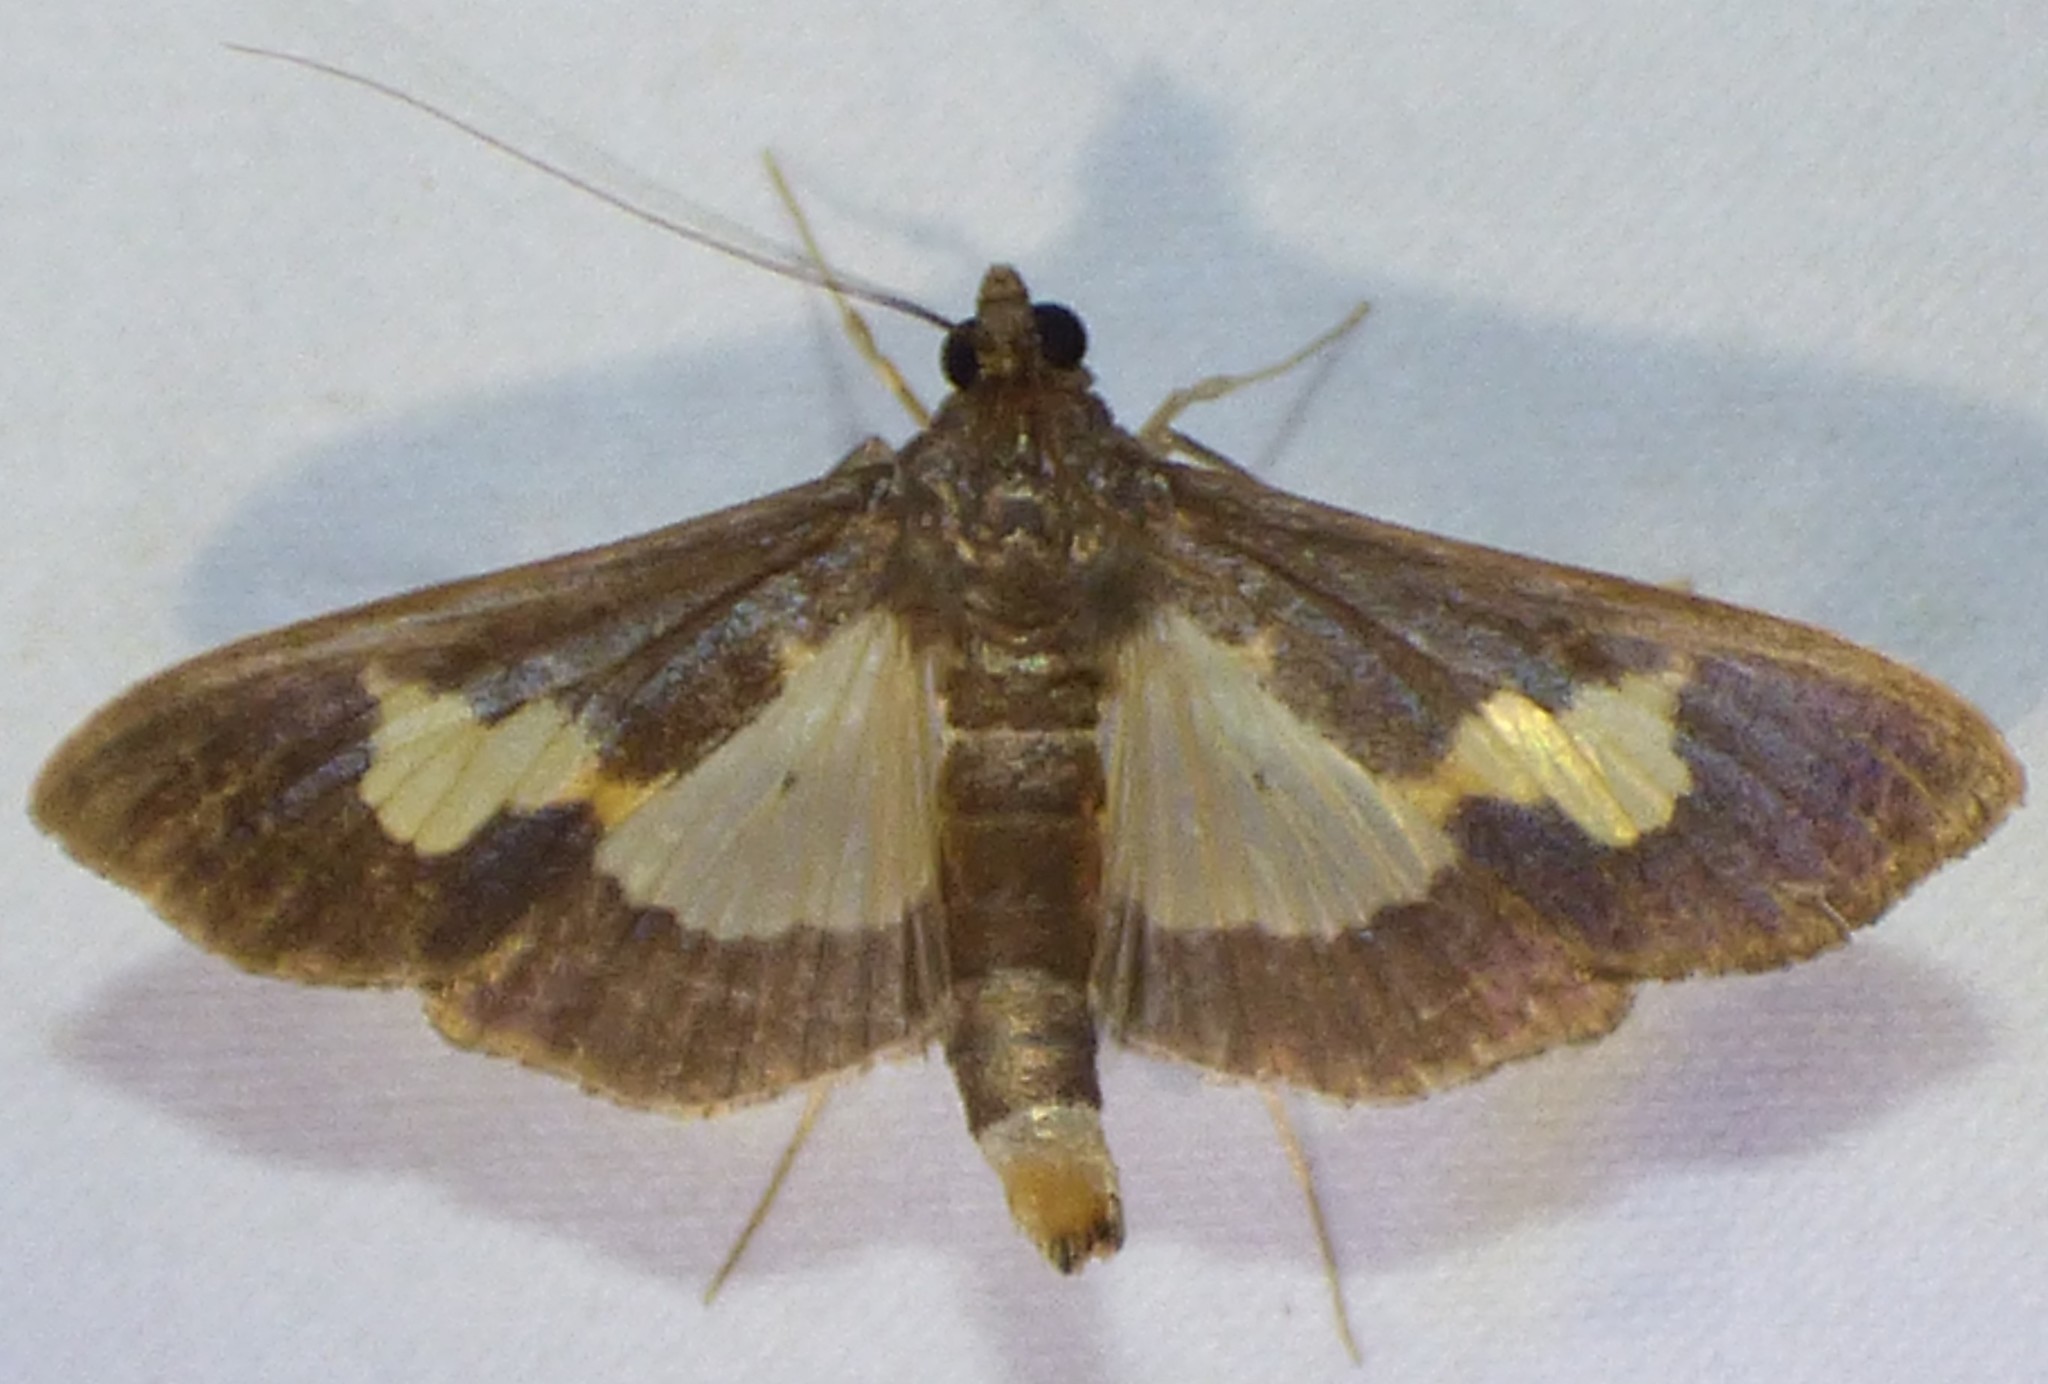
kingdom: Animalia
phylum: Arthropoda
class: Insecta
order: Lepidoptera
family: Crambidae
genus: Cryptographis
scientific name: Cryptographis nitidalis
